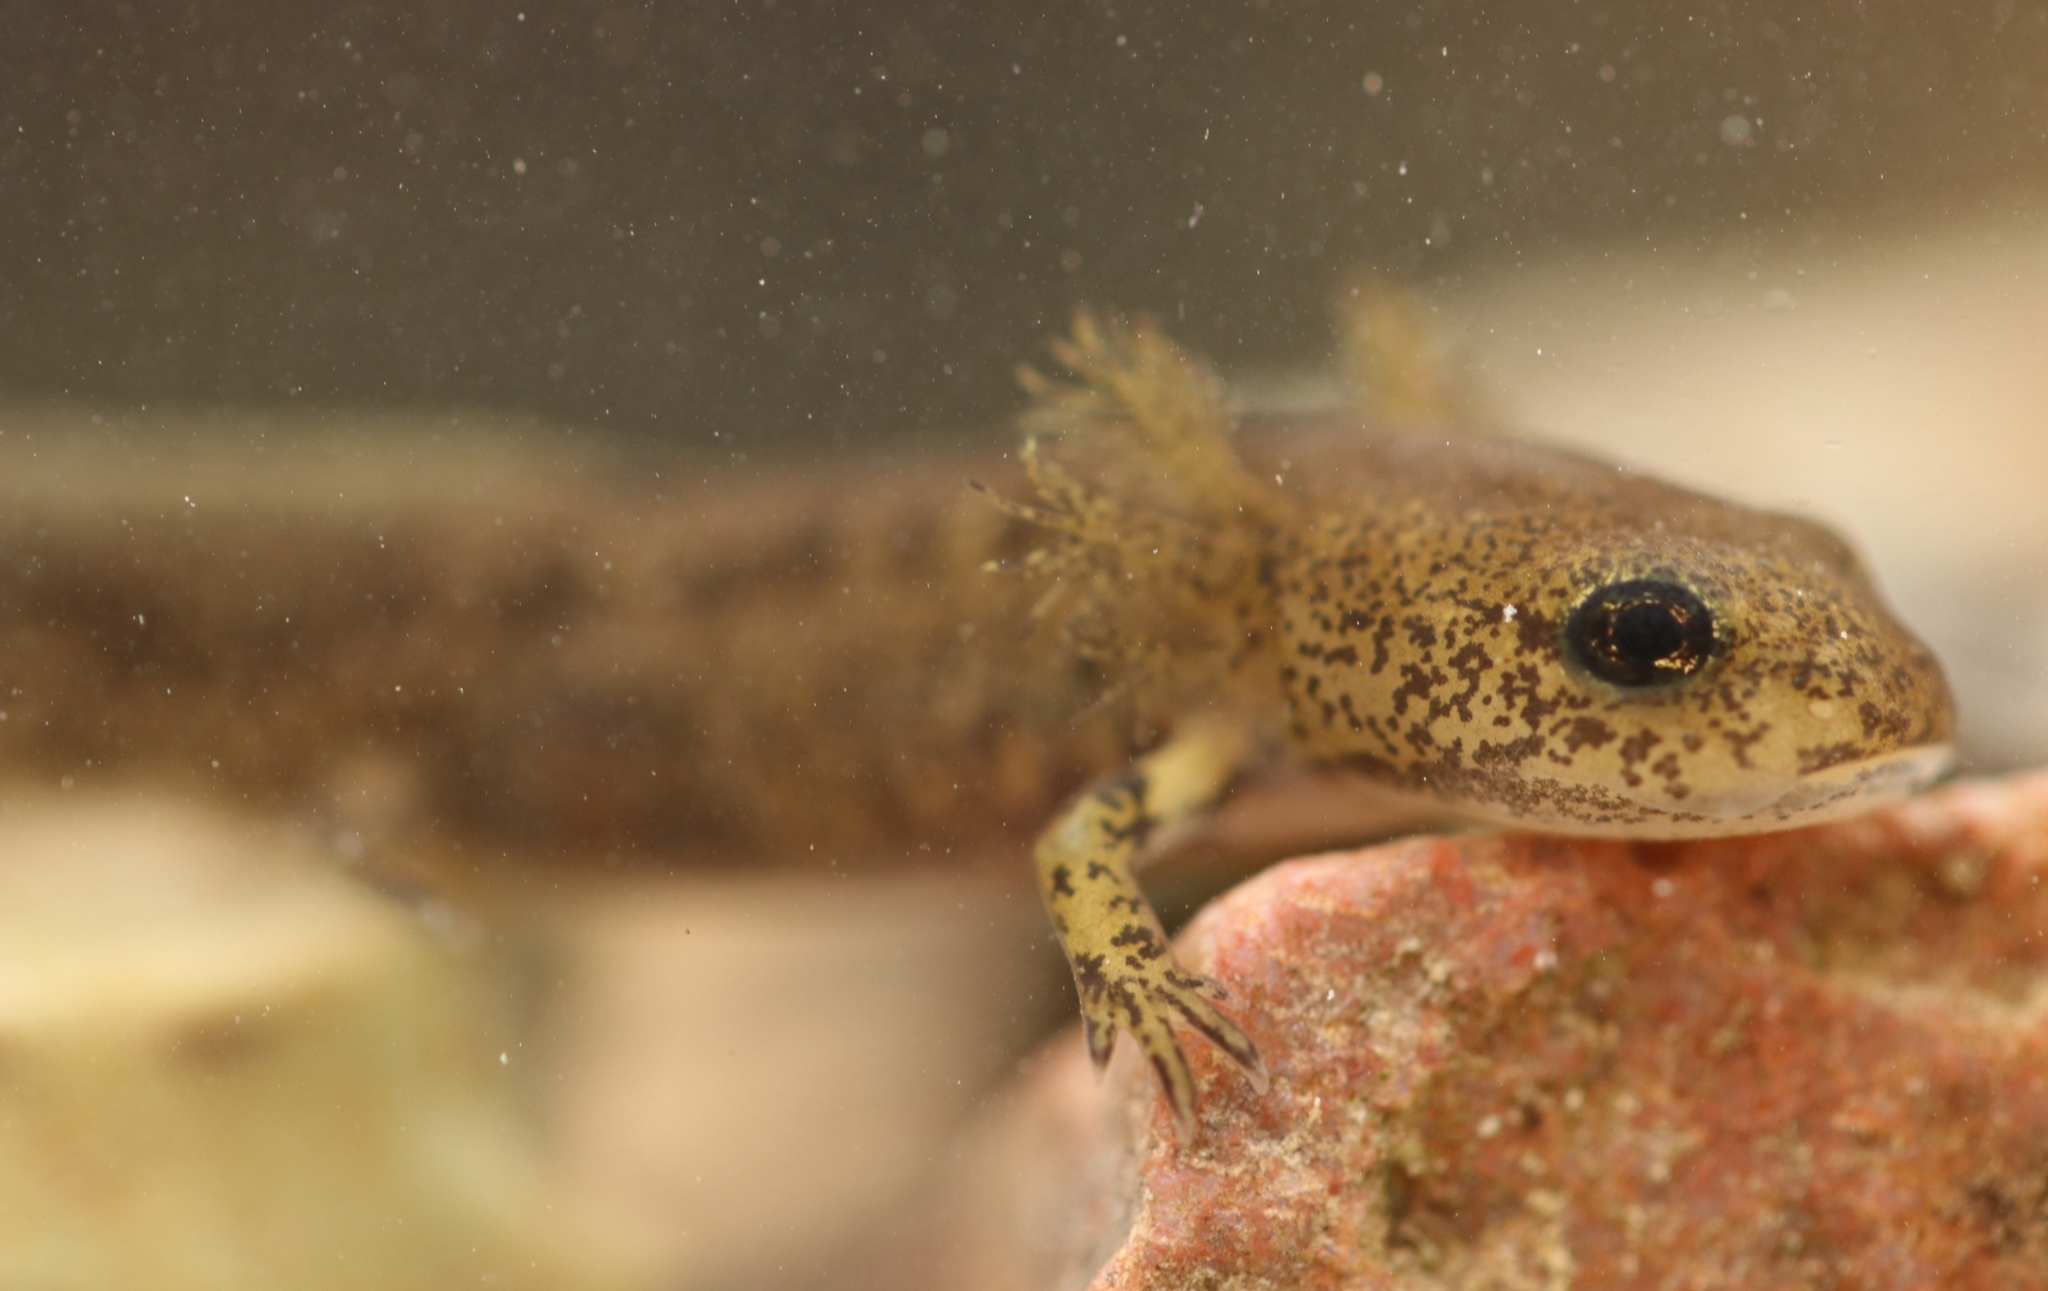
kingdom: Animalia
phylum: Chordata
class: Amphibia
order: Caudata
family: Salamandridae
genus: Salamandra
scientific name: Salamandra salamandra
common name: Fire salamander
